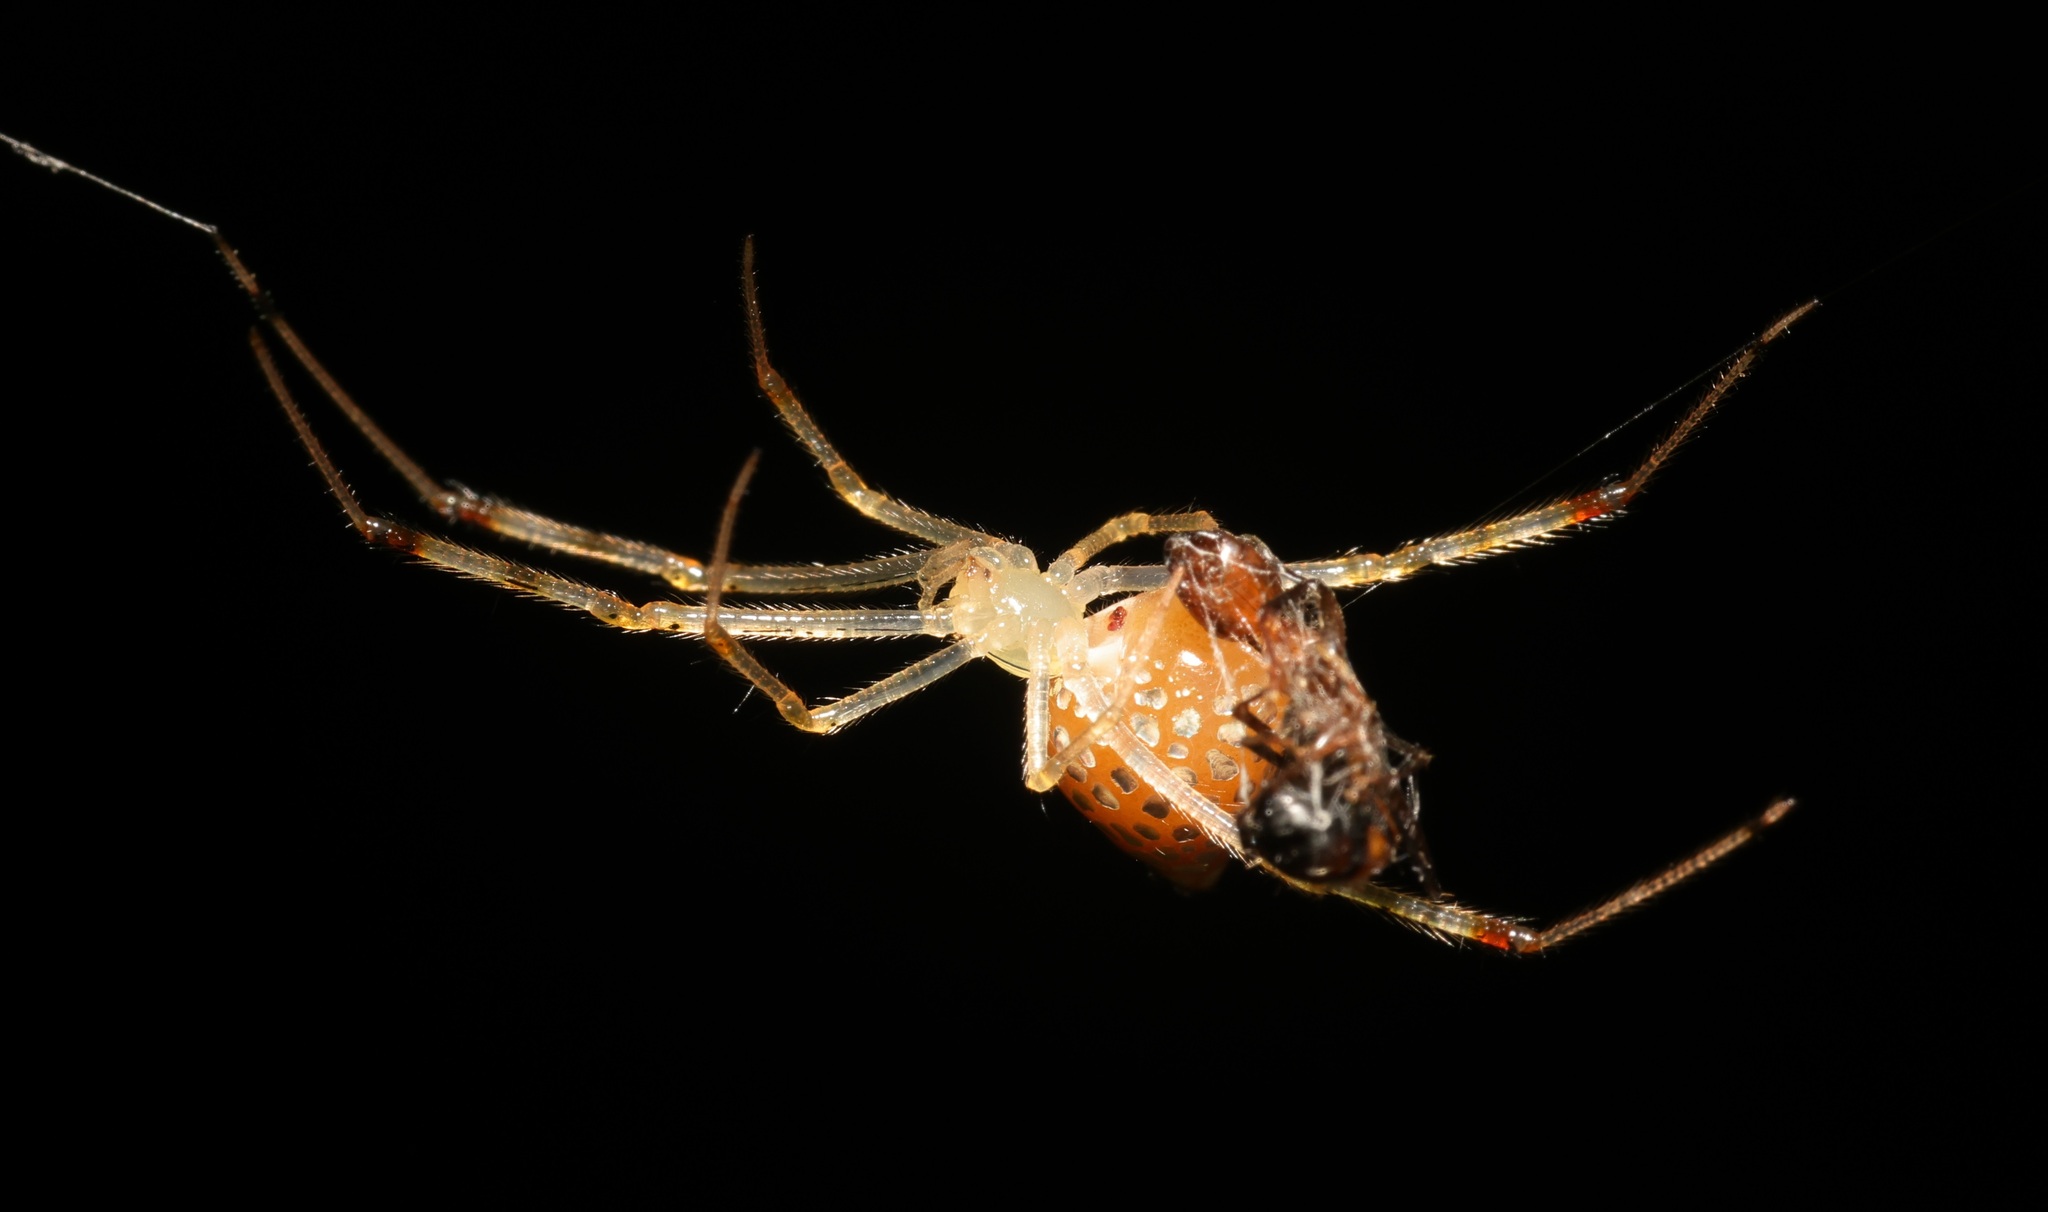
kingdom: Animalia
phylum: Arthropoda
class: Arachnida
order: Araneae
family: Theridiidae
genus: Thwaitesia
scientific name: Thwaitesia margaritifera
